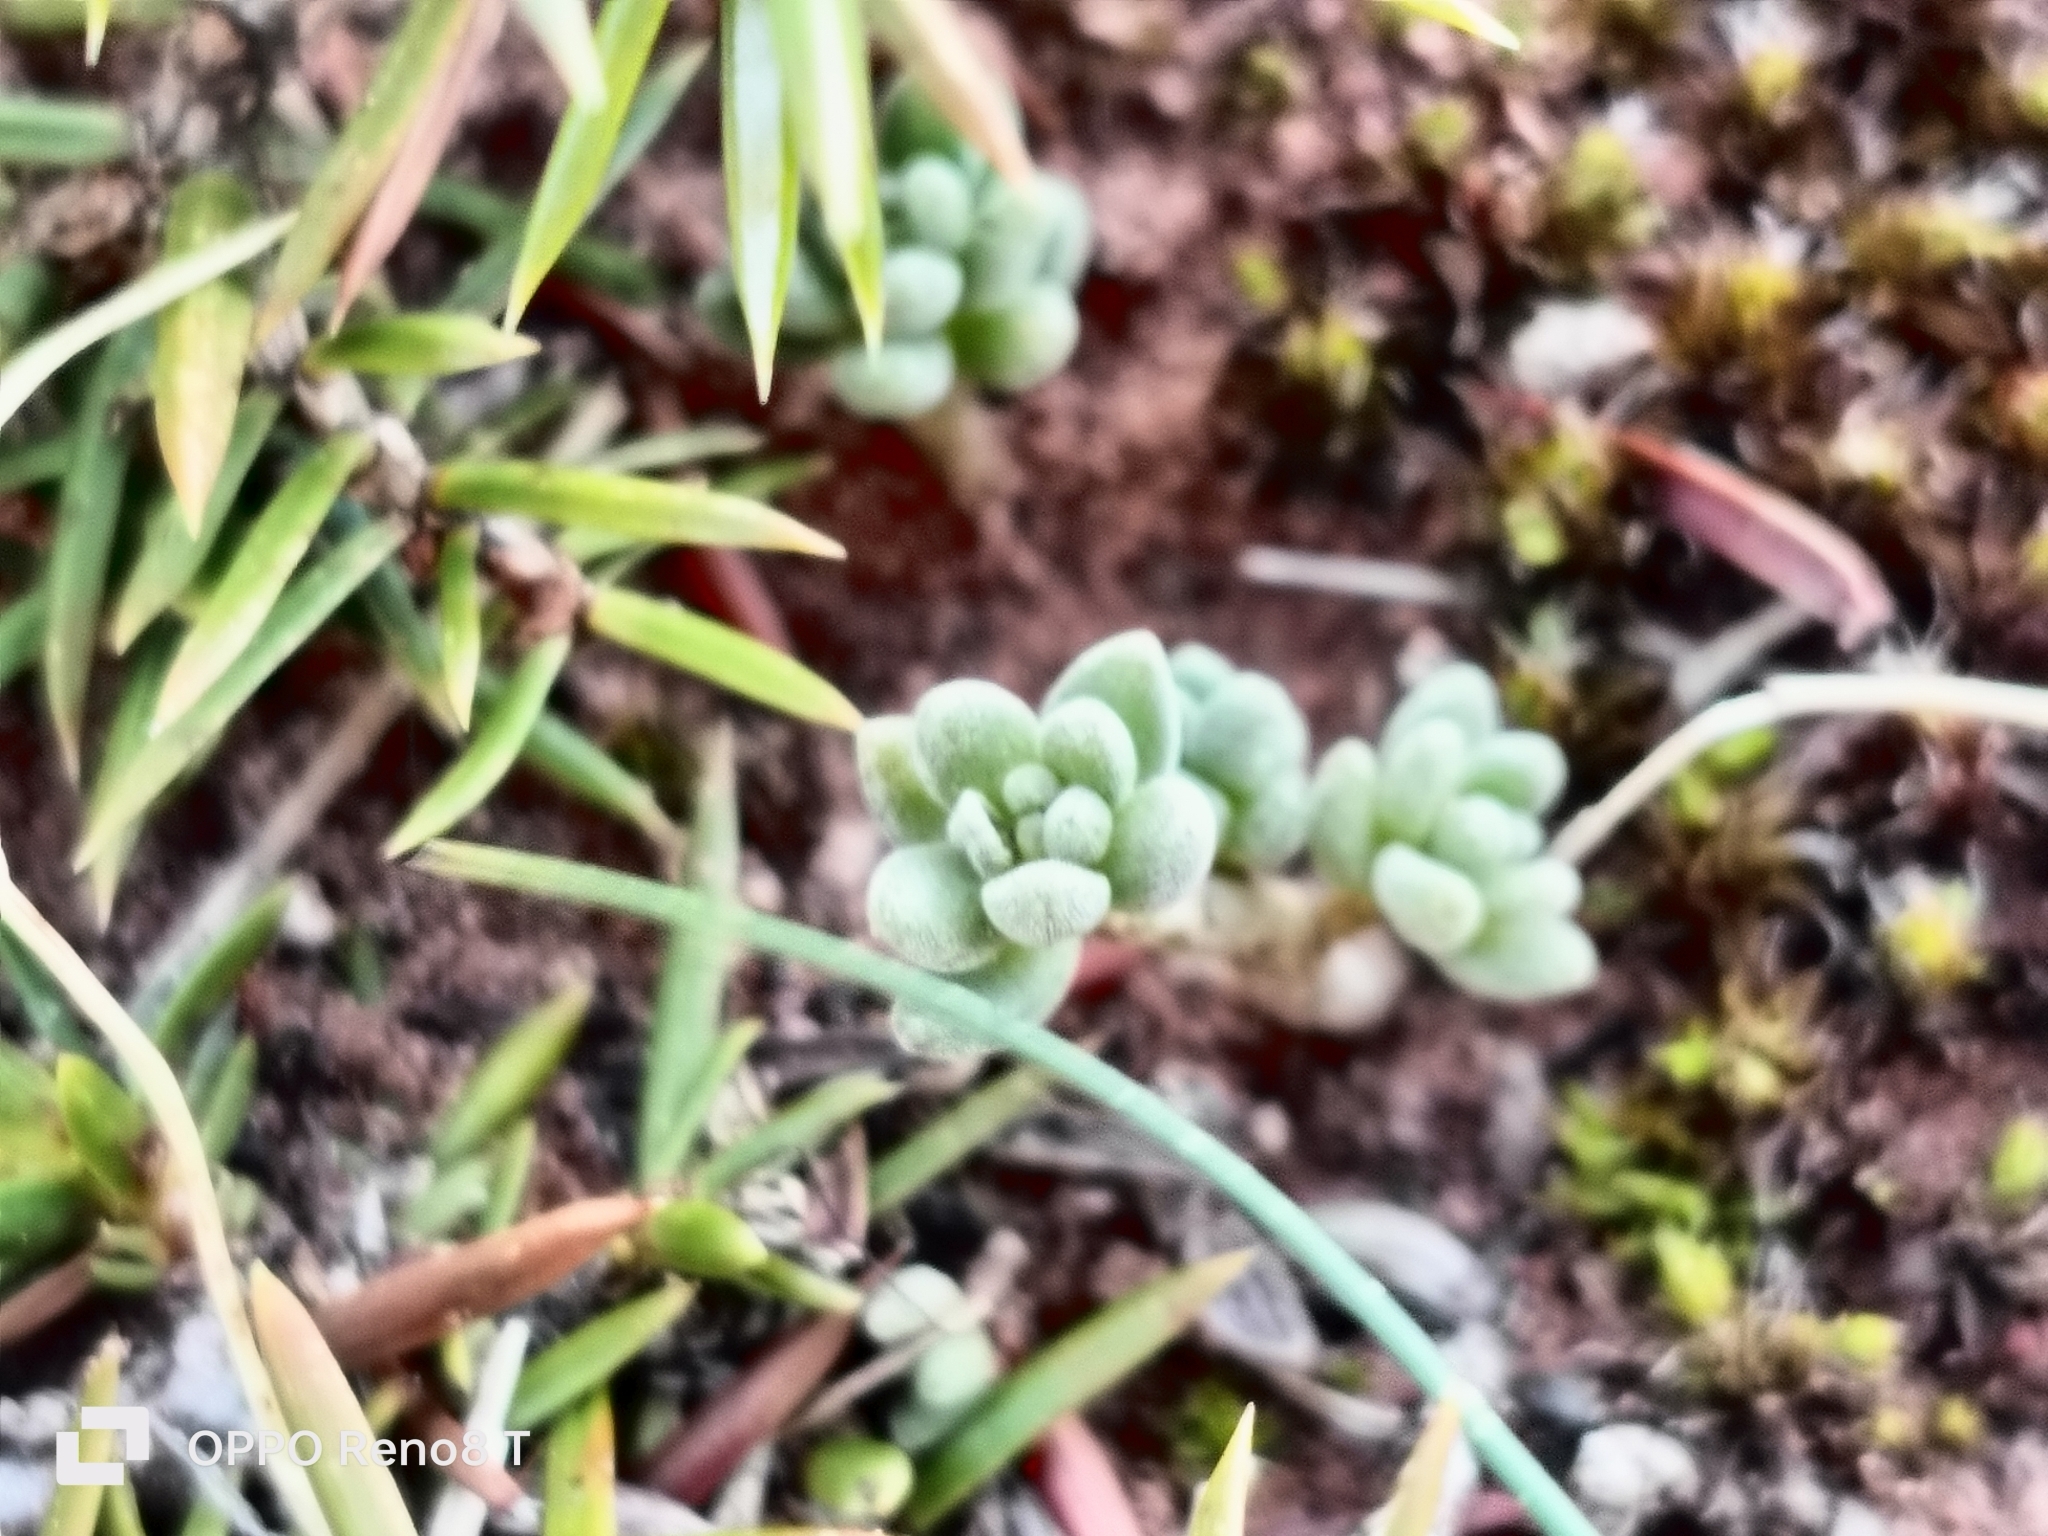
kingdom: Plantae
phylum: Tracheophyta
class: Magnoliopsida
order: Saxifragales
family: Crassulaceae
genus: Sedum
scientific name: Sedum gypsicola
